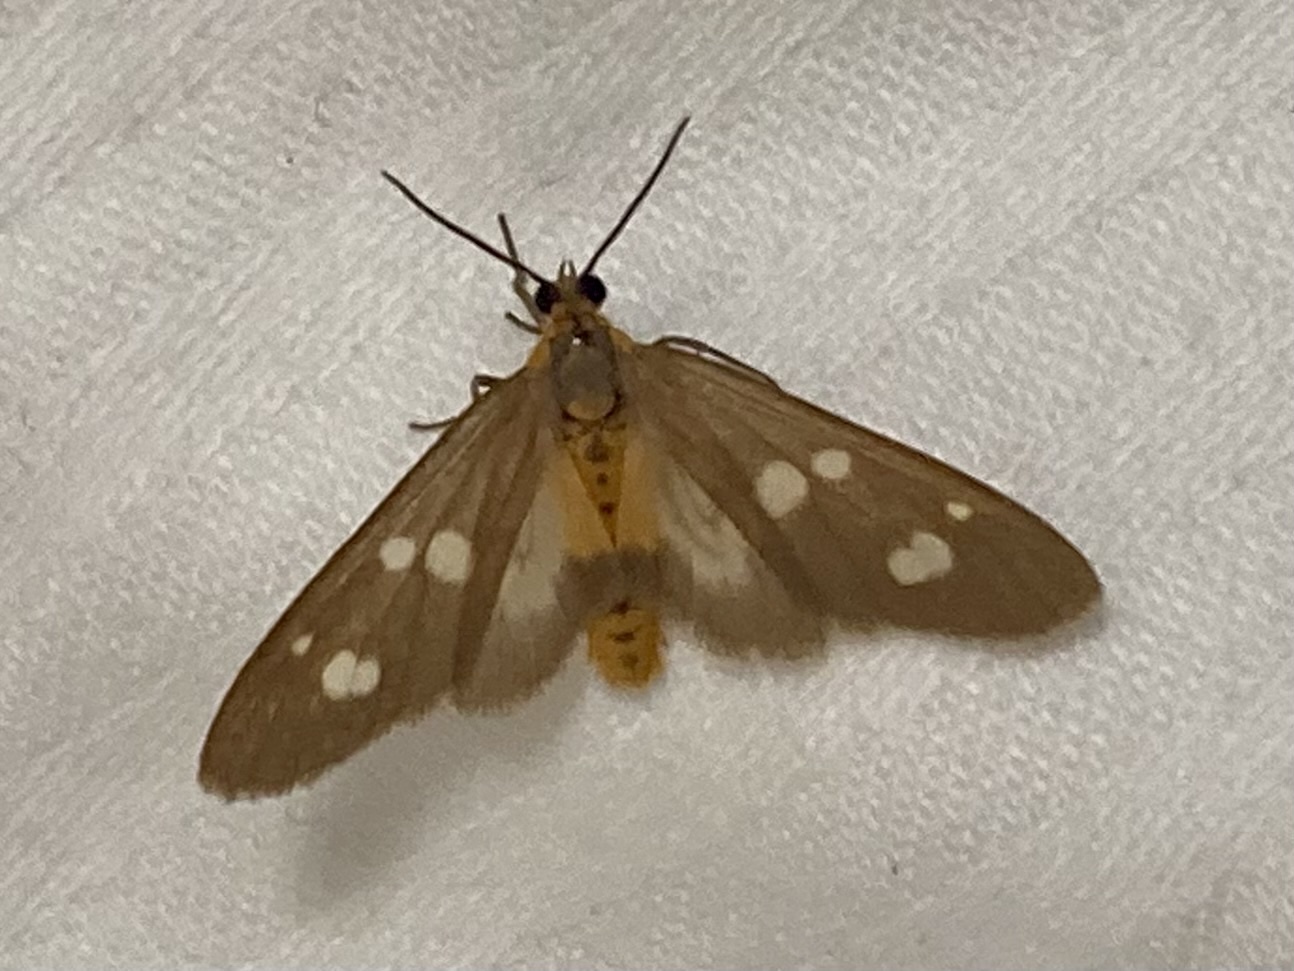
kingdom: Animalia
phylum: Arthropoda
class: Insecta
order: Lepidoptera
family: Erebidae
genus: Dysauxes
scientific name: Dysauxes punctata
